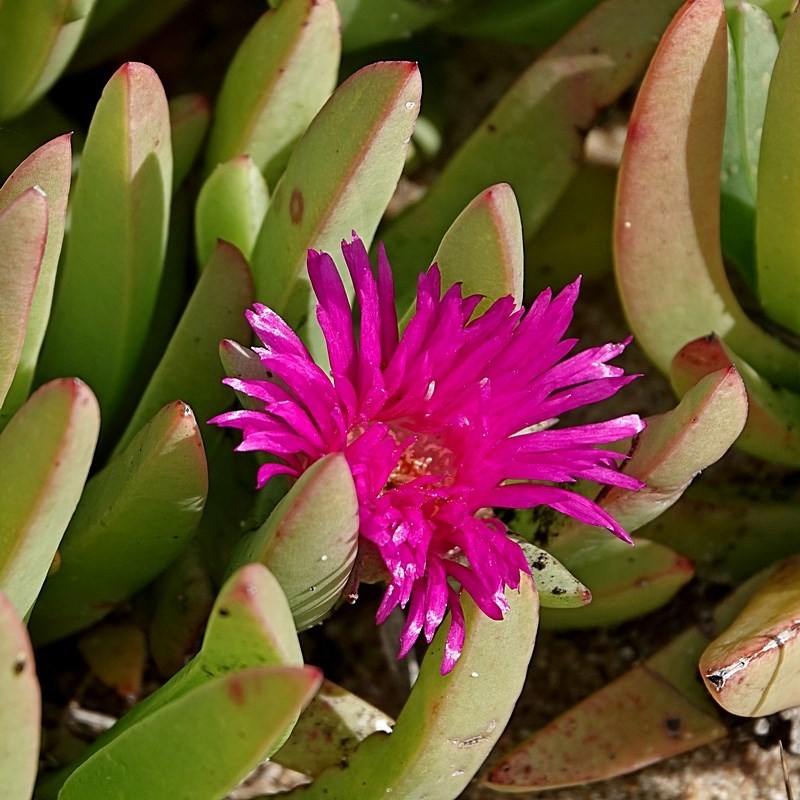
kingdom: Plantae
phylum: Tracheophyta
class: Magnoliopsida
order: Caryophyllales
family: Aizoaceae
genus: Carpobrotus
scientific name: Carpobrotus glaucescens
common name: Angular sea-fig
